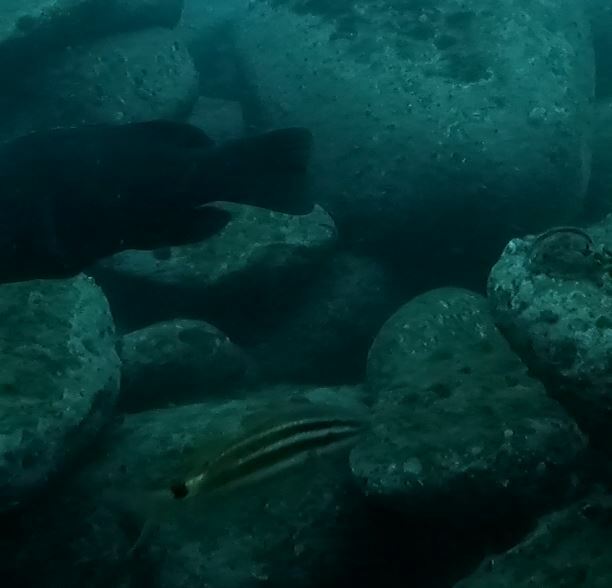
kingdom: Animalia
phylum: Chordata
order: Perciformes
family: Mullidae
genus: Parupeneus
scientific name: Parupeneus spilurus
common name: Blackspot goatfish
